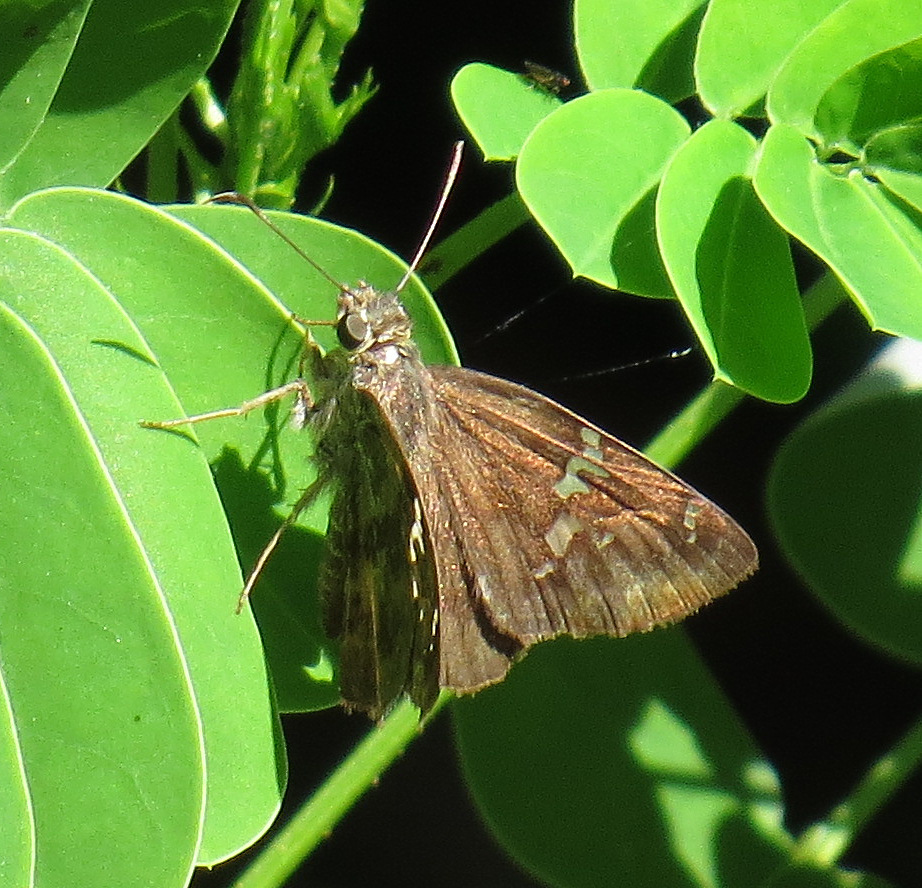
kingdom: Animalia
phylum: Arthropoda
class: Insecta
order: Lepidoptera
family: Hesperiidae
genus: Autochton
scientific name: Autochton potrillo
